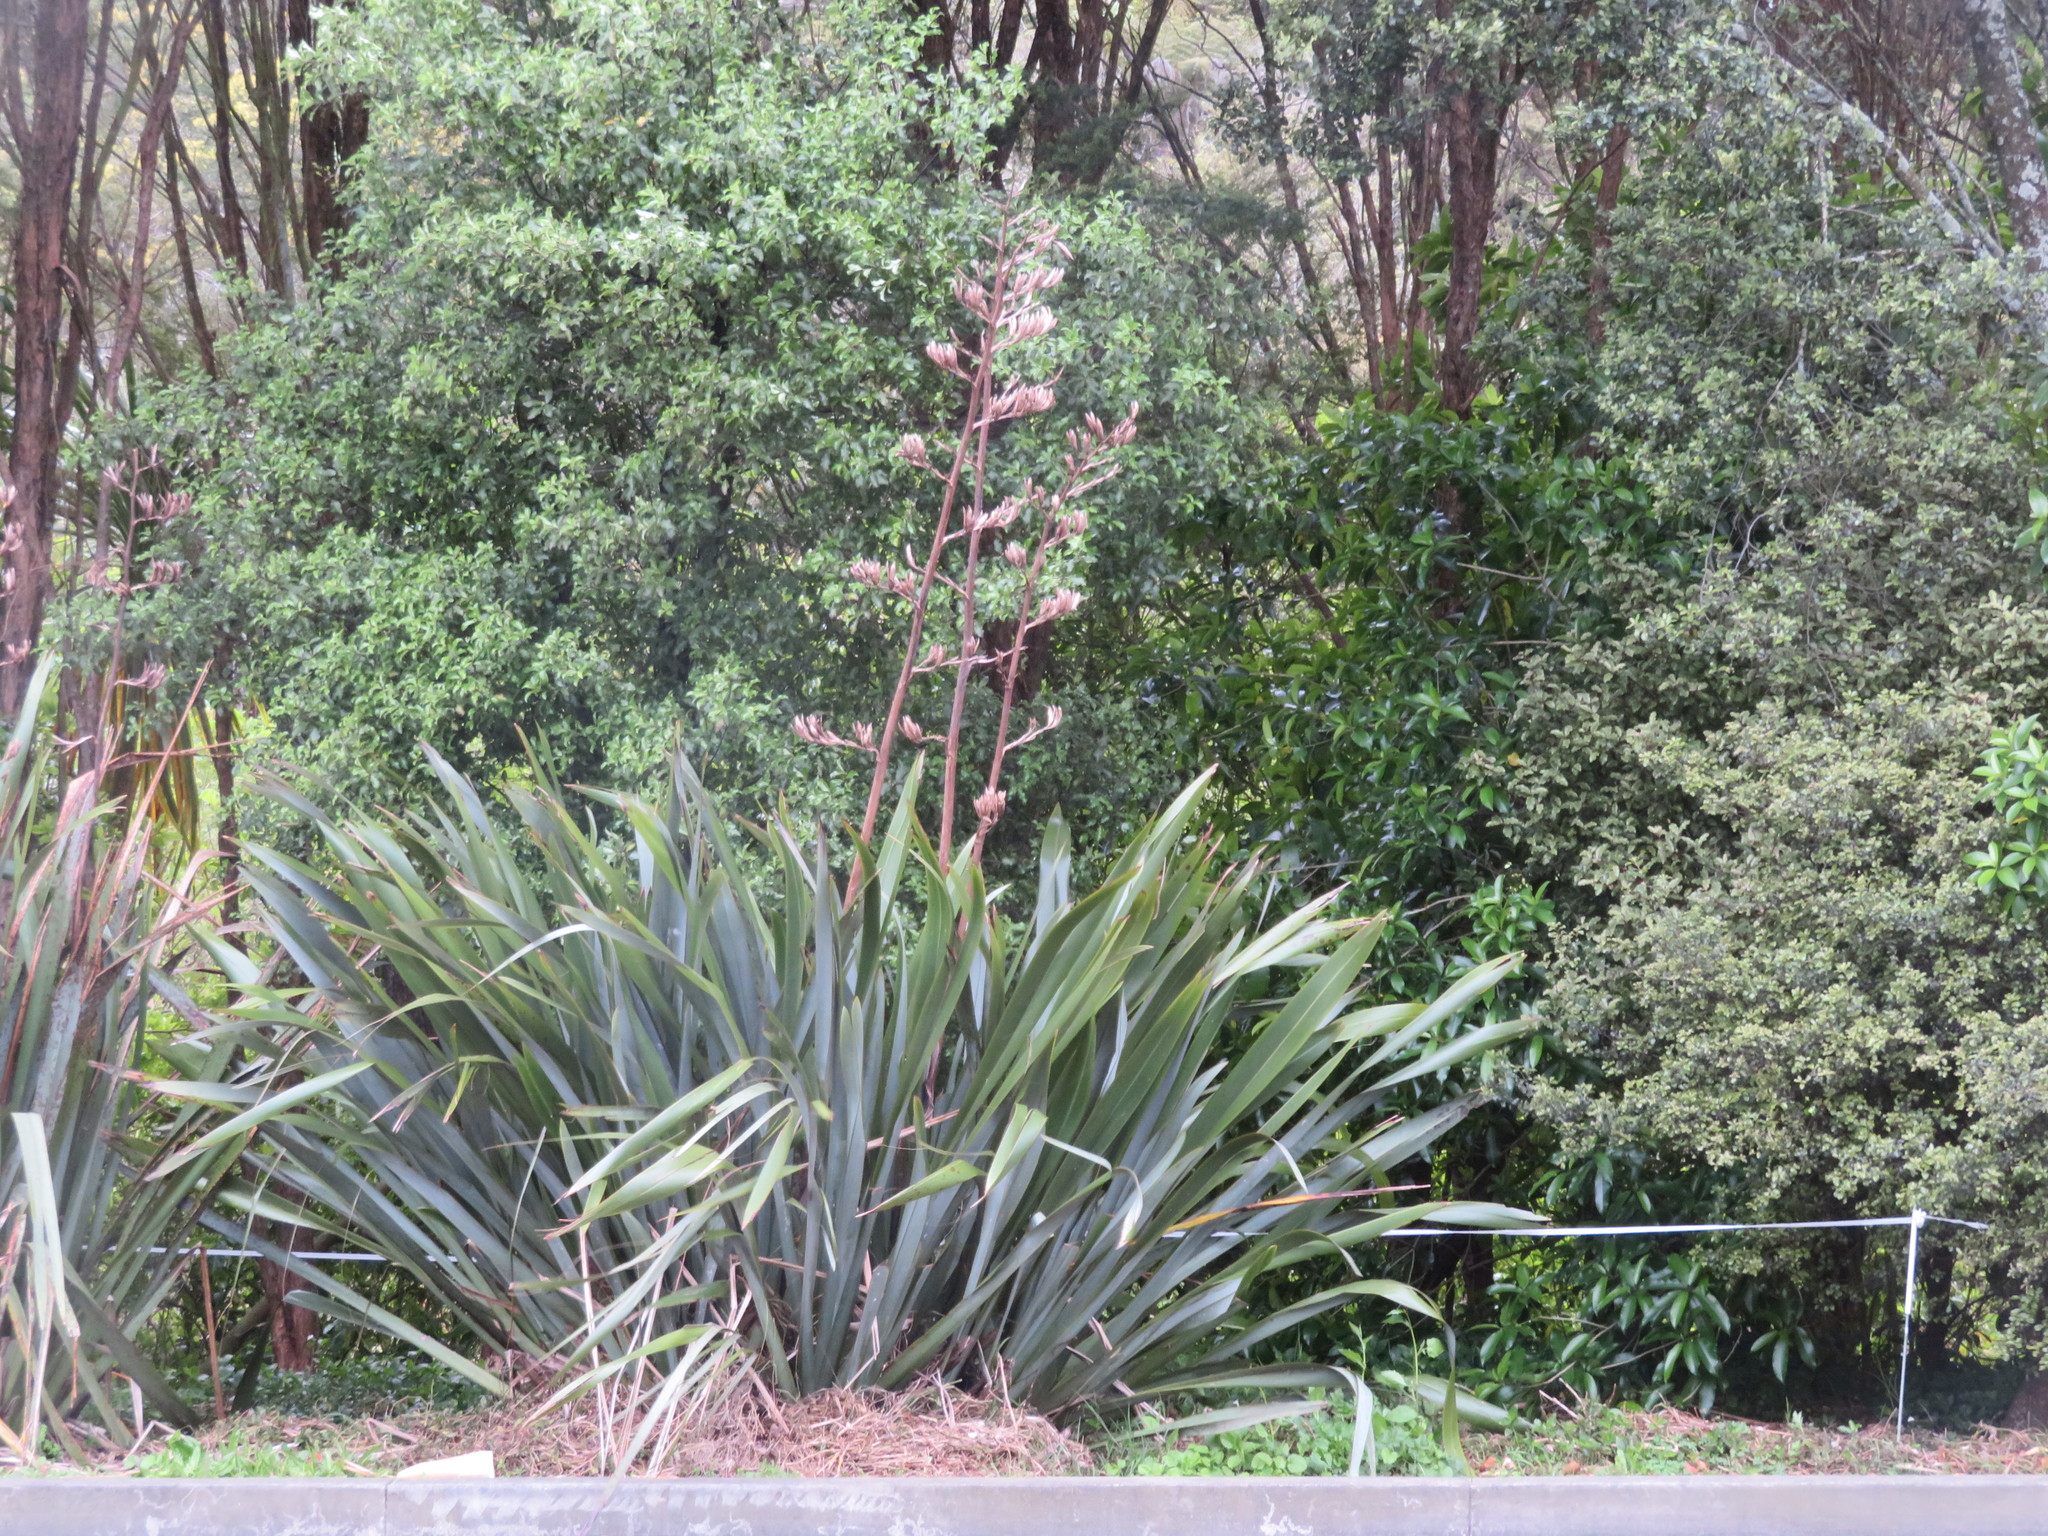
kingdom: Plantae
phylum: Tracheophyta
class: Liliopsida
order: Asparagales
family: Asphodelaceae
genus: Phormium
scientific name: Phormium tenax
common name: New zealand flax
